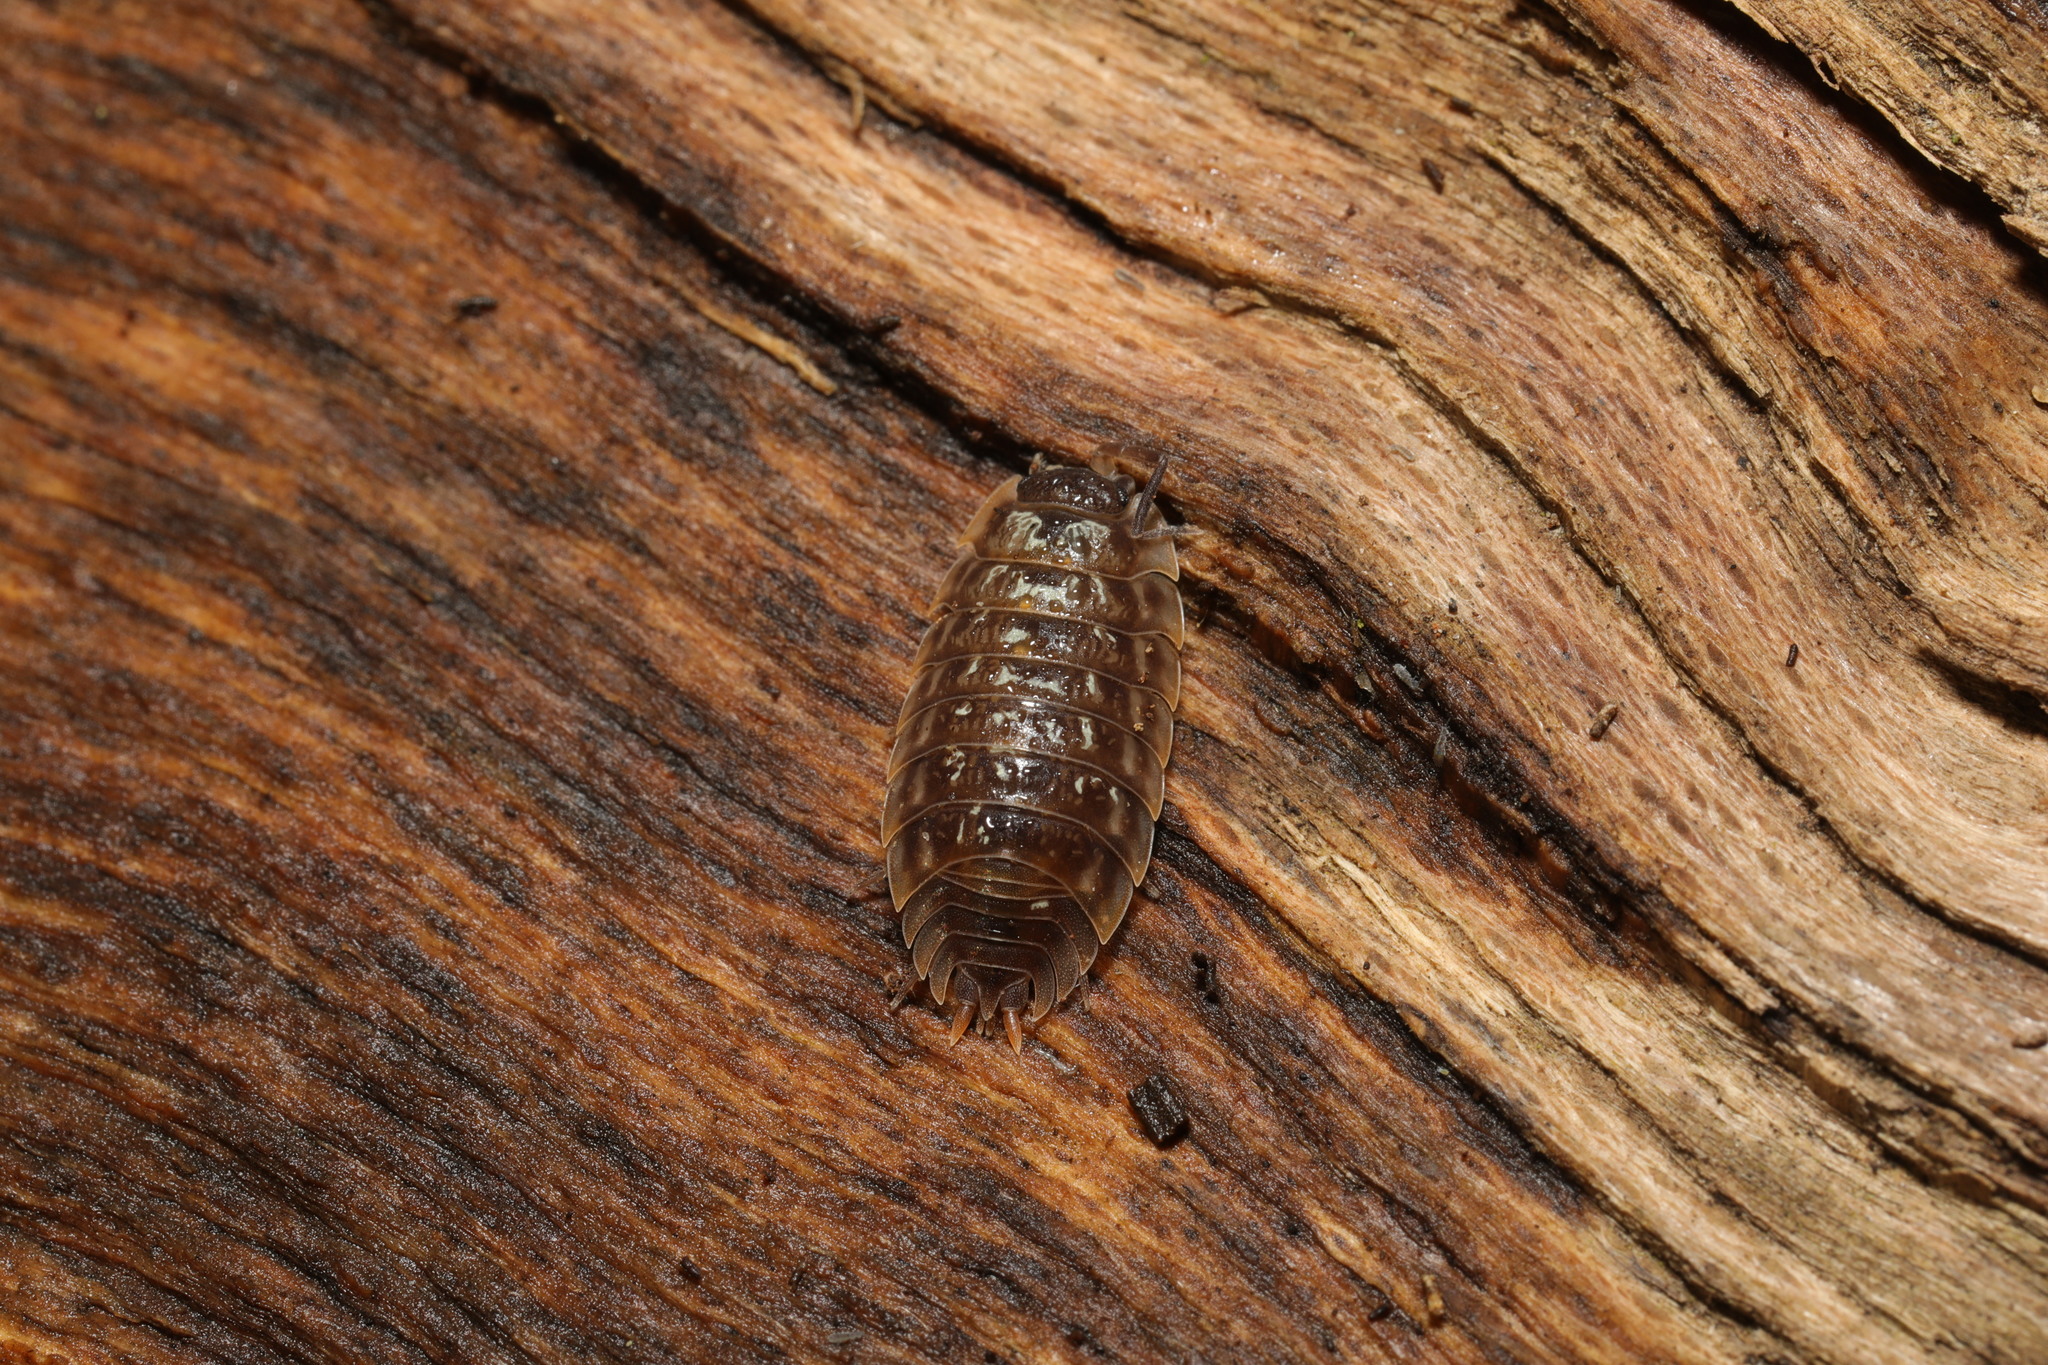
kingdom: Animalia
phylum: Arthropoda
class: Malacostraca
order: Isopoda
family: Oniscidae
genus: Oniscus
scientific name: Oniscus asellus
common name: Common shiny woodlouse
